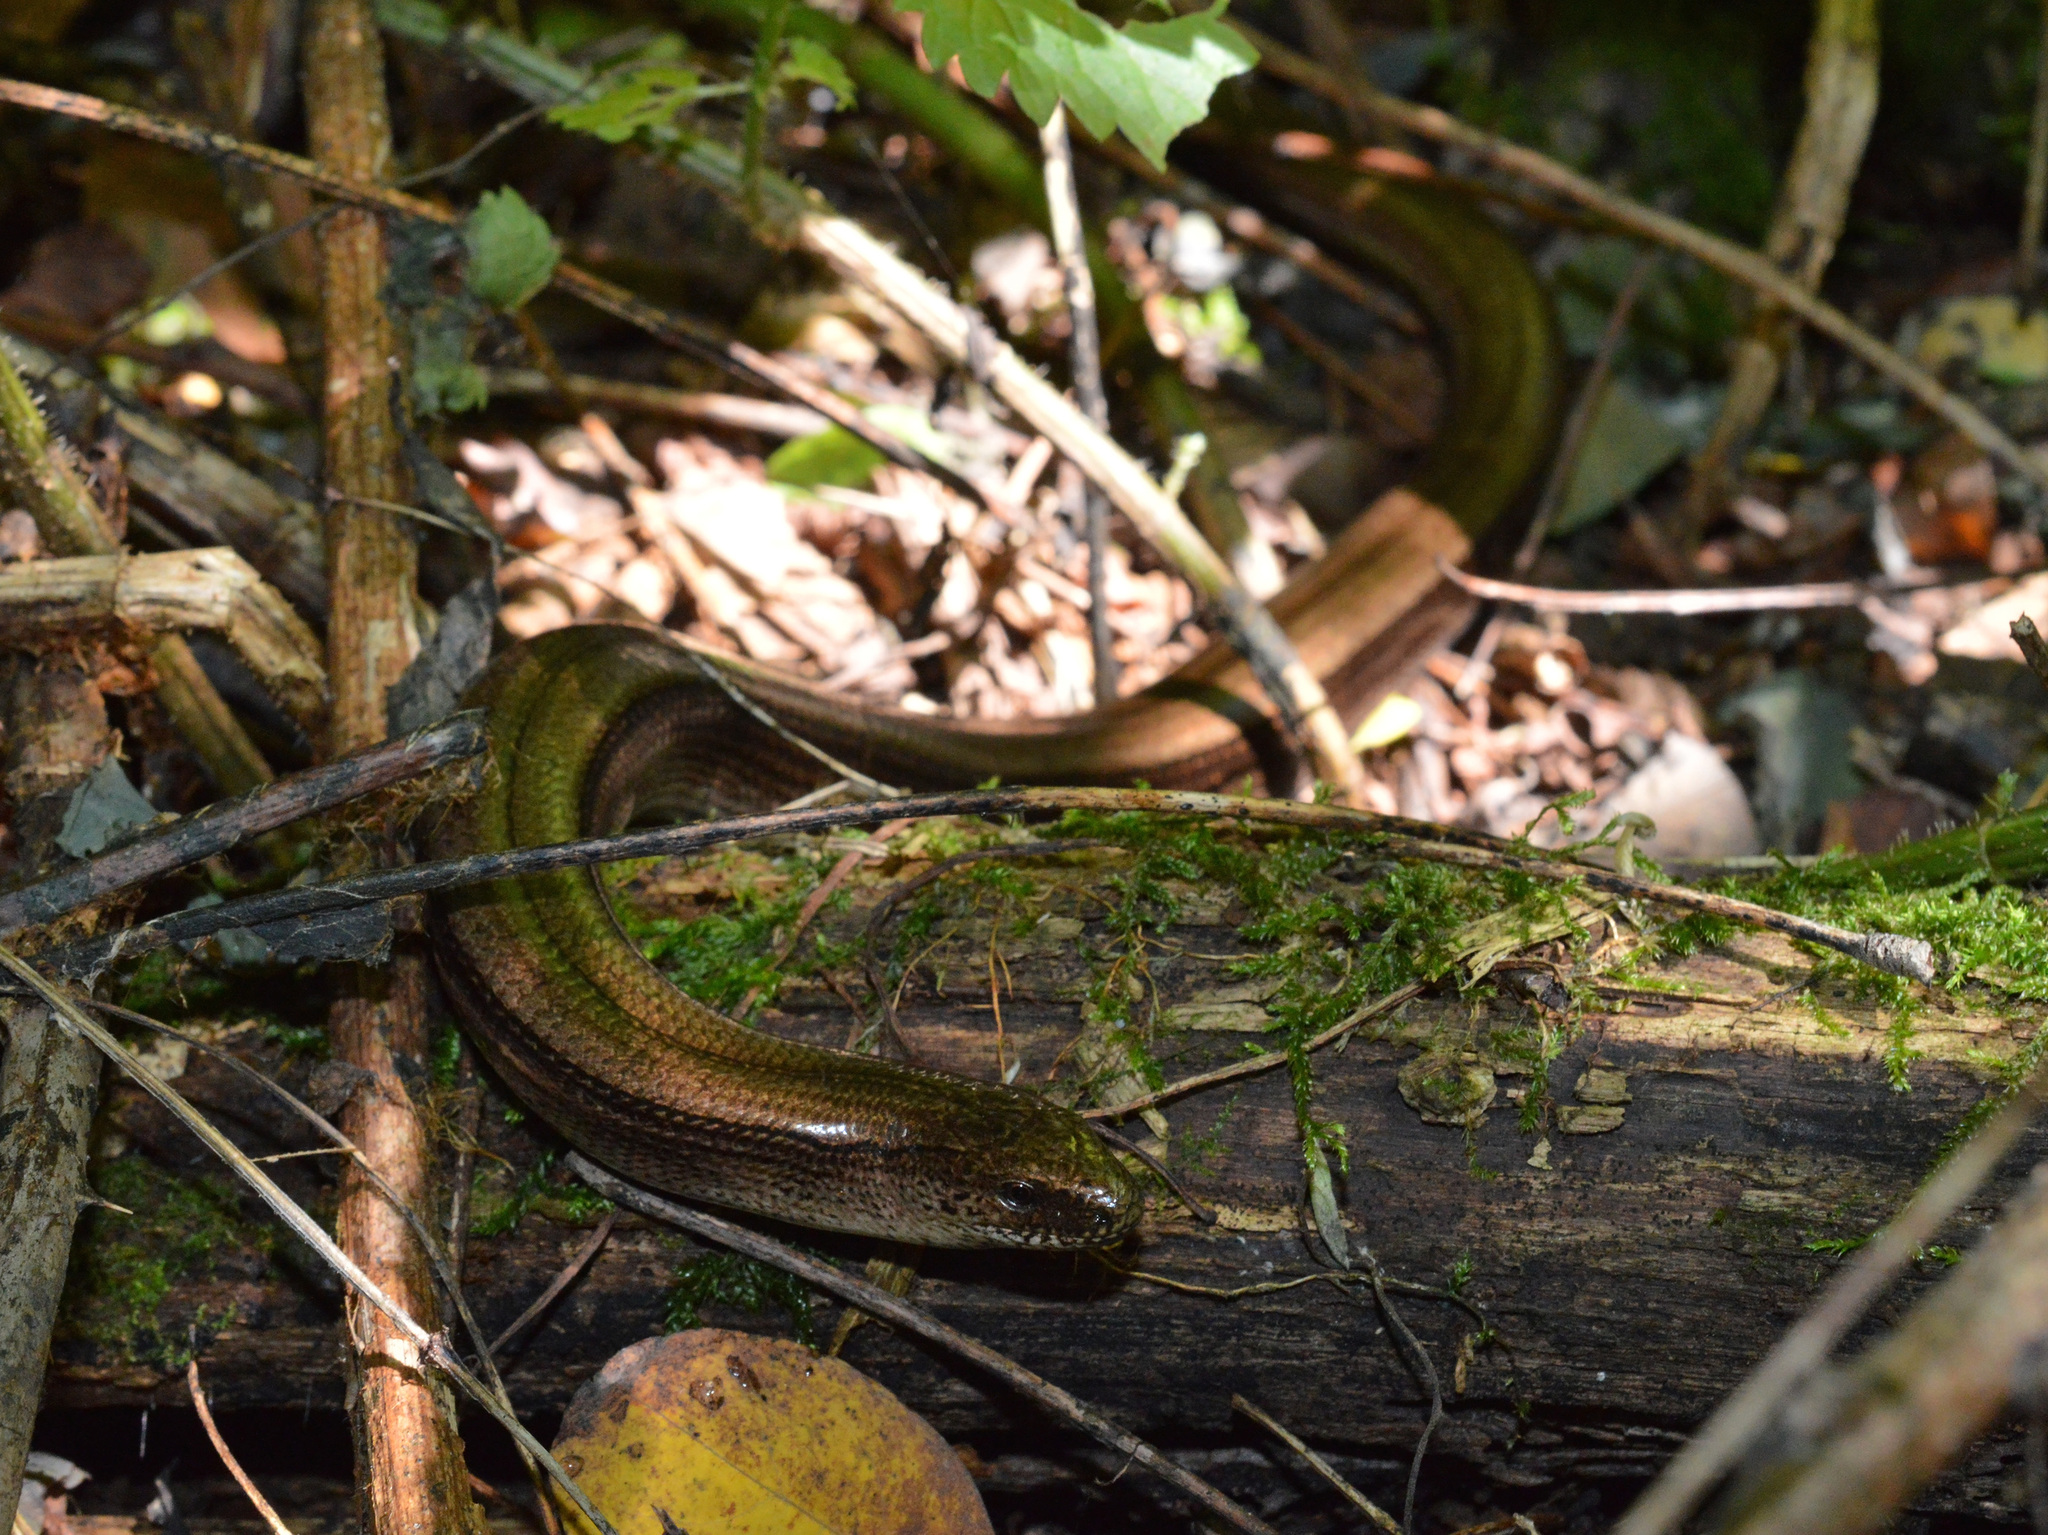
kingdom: Animalia
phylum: Chordata
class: Squamata
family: Anguidae
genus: Anguis
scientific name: Anguis colchica
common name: Slow worm
